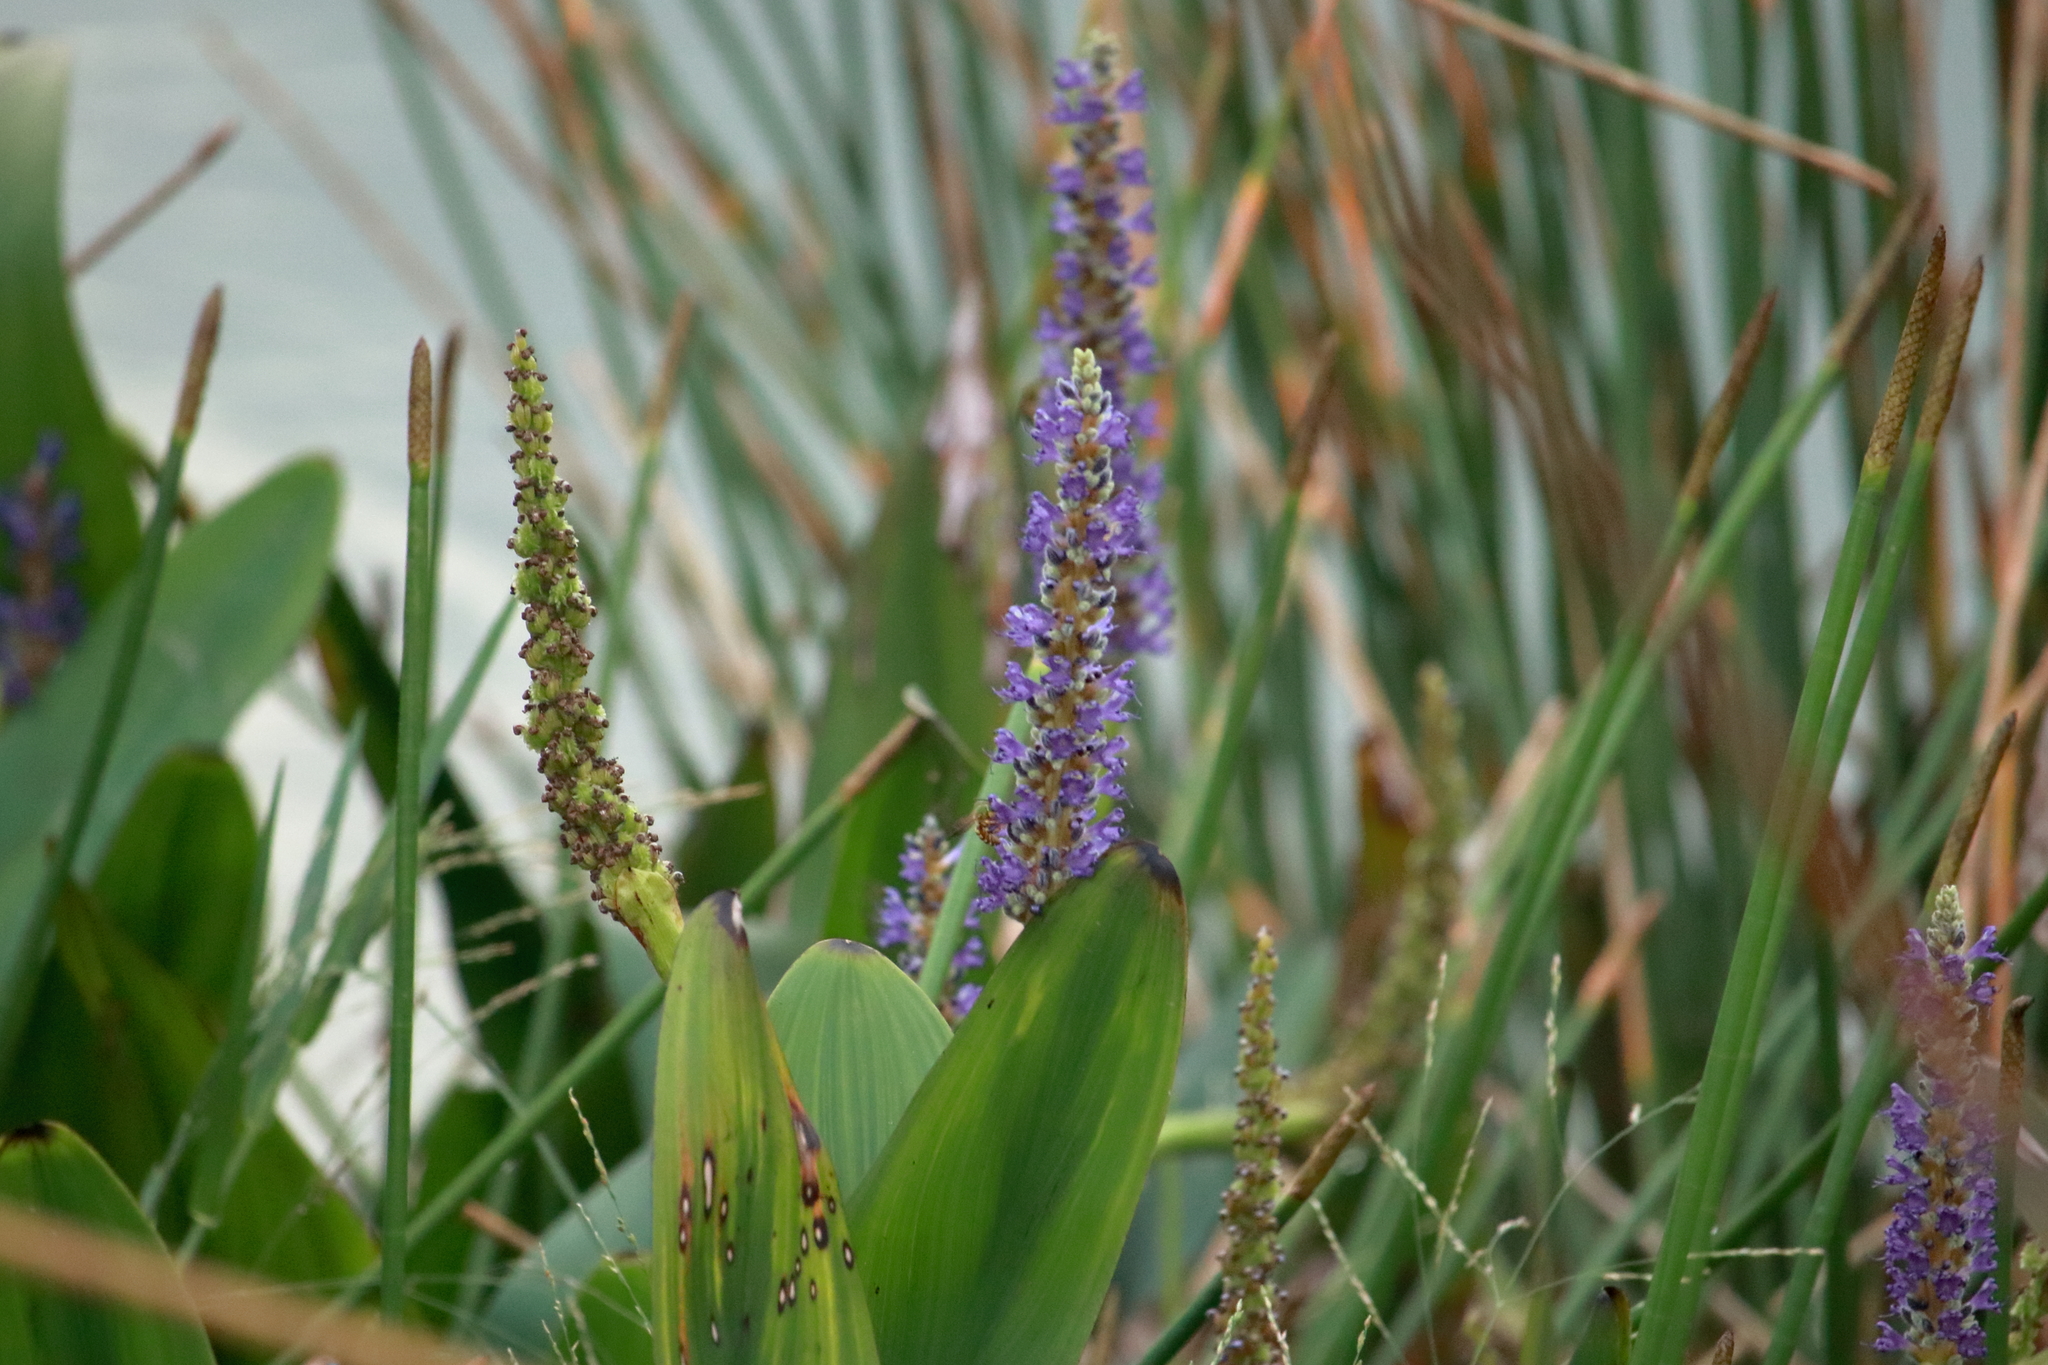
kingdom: Plantae
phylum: Tracheophyta
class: Liliopsida
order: Commelinales
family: Pontederiaceae
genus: Pontederia
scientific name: Pontederia cordata
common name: Pickerelweed
